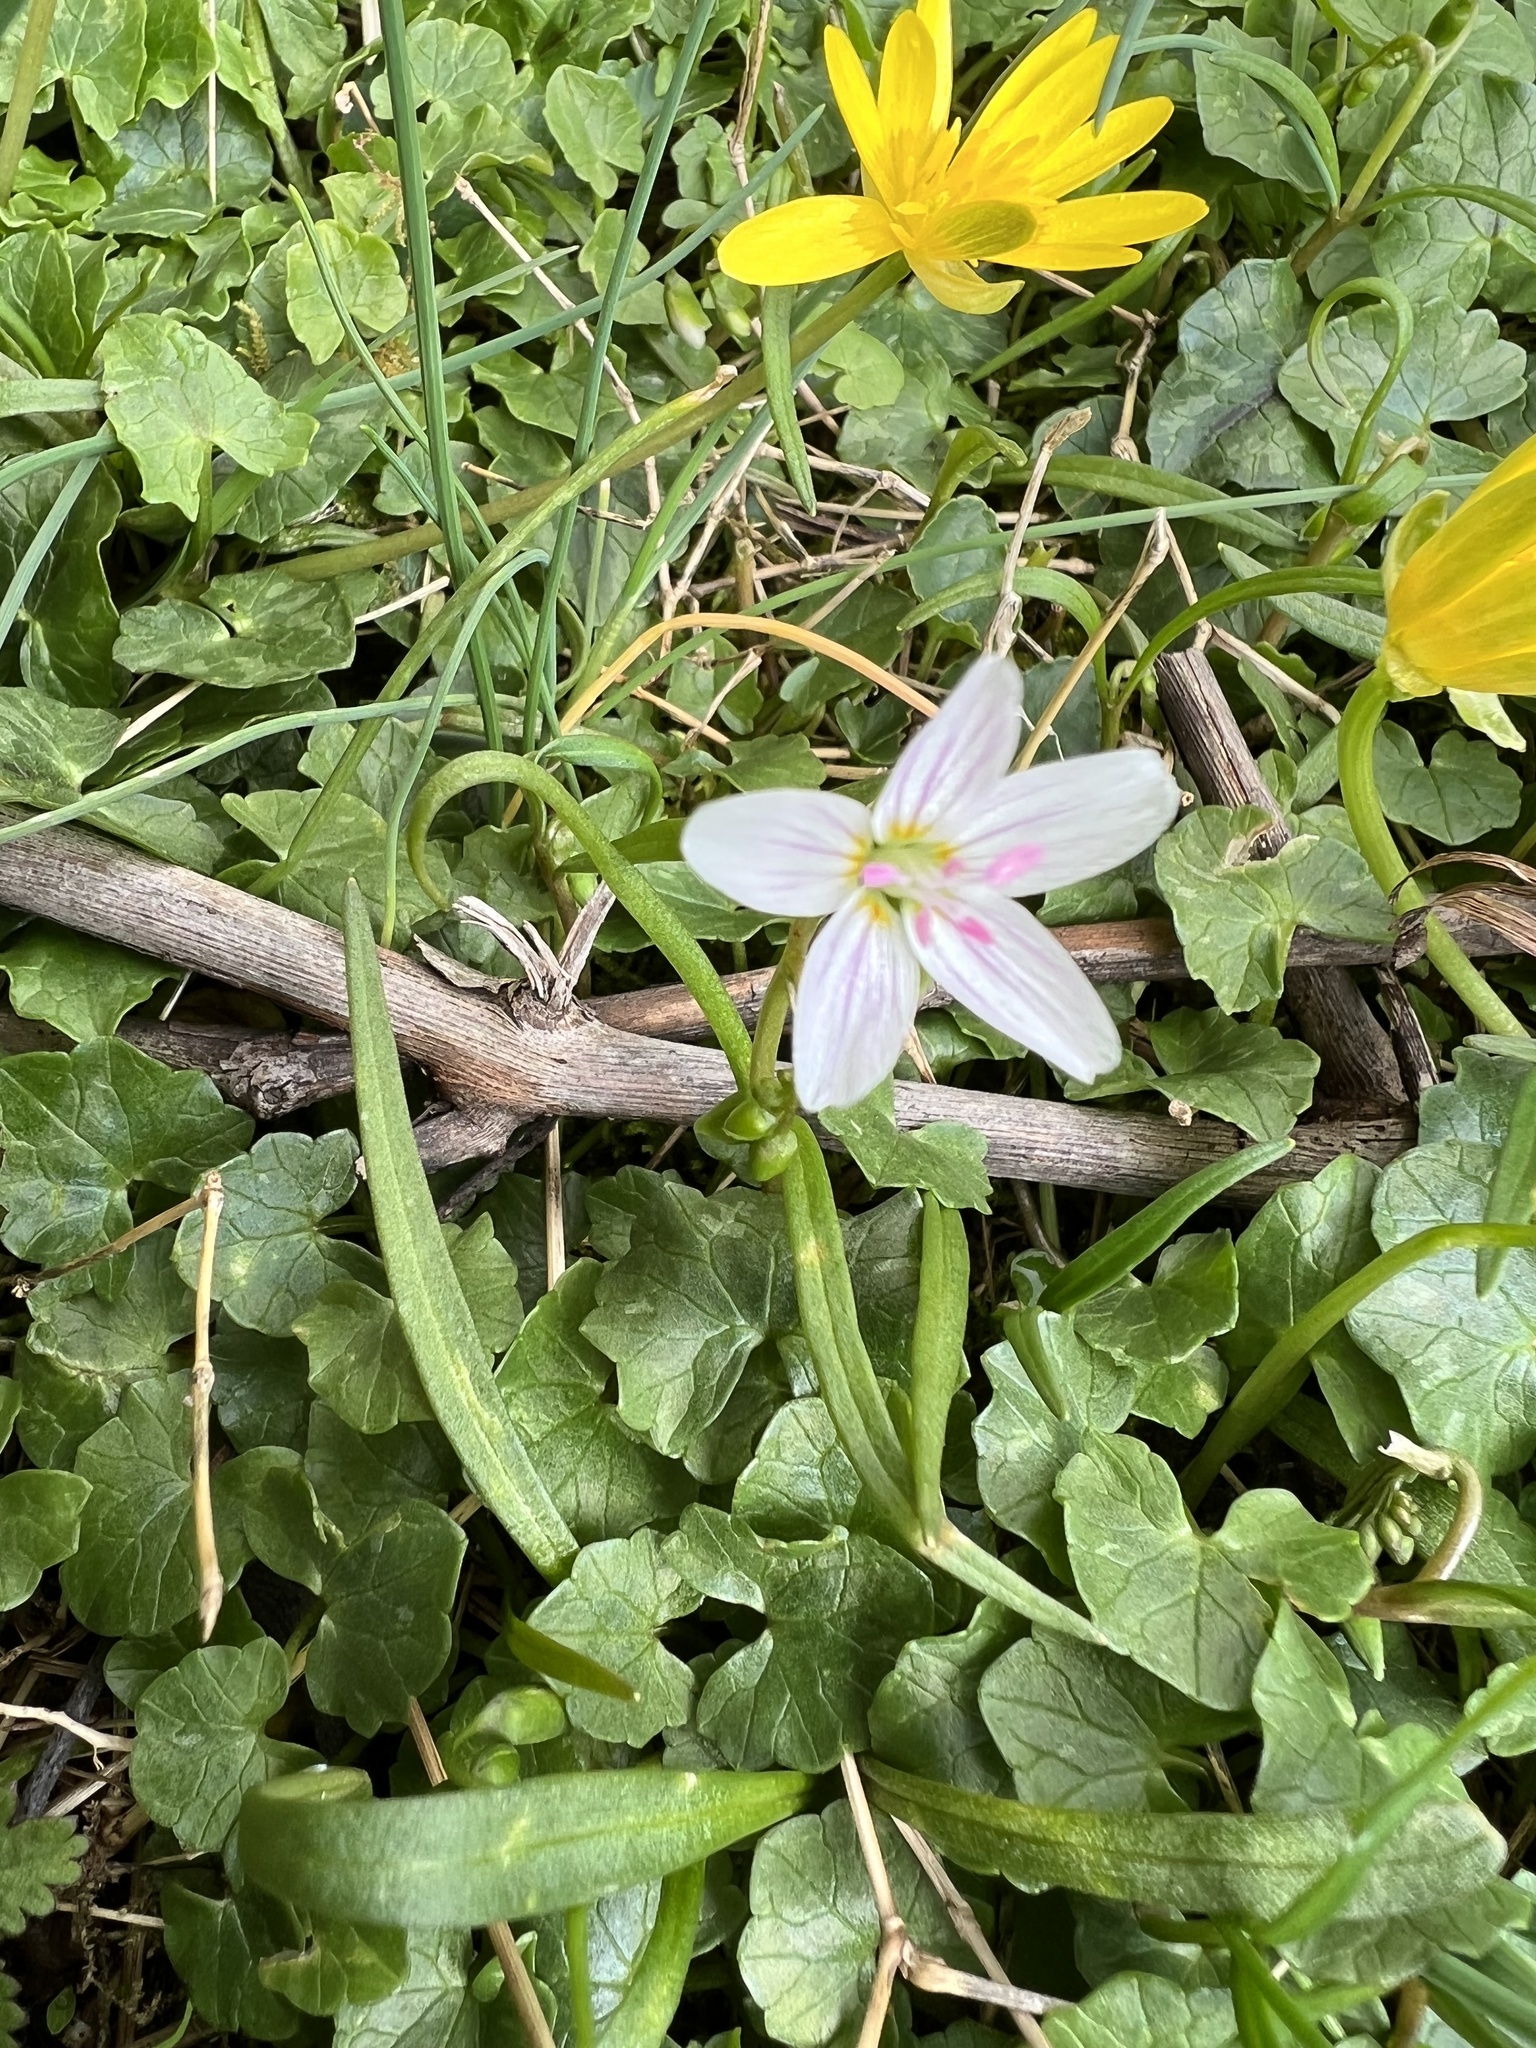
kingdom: Plantae
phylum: Tracheophyta
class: Magnoliopsida
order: Caryophyllales
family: Montiaceae
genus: Claytonia
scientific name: Claytonia virginica
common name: Virginia springbeauty
